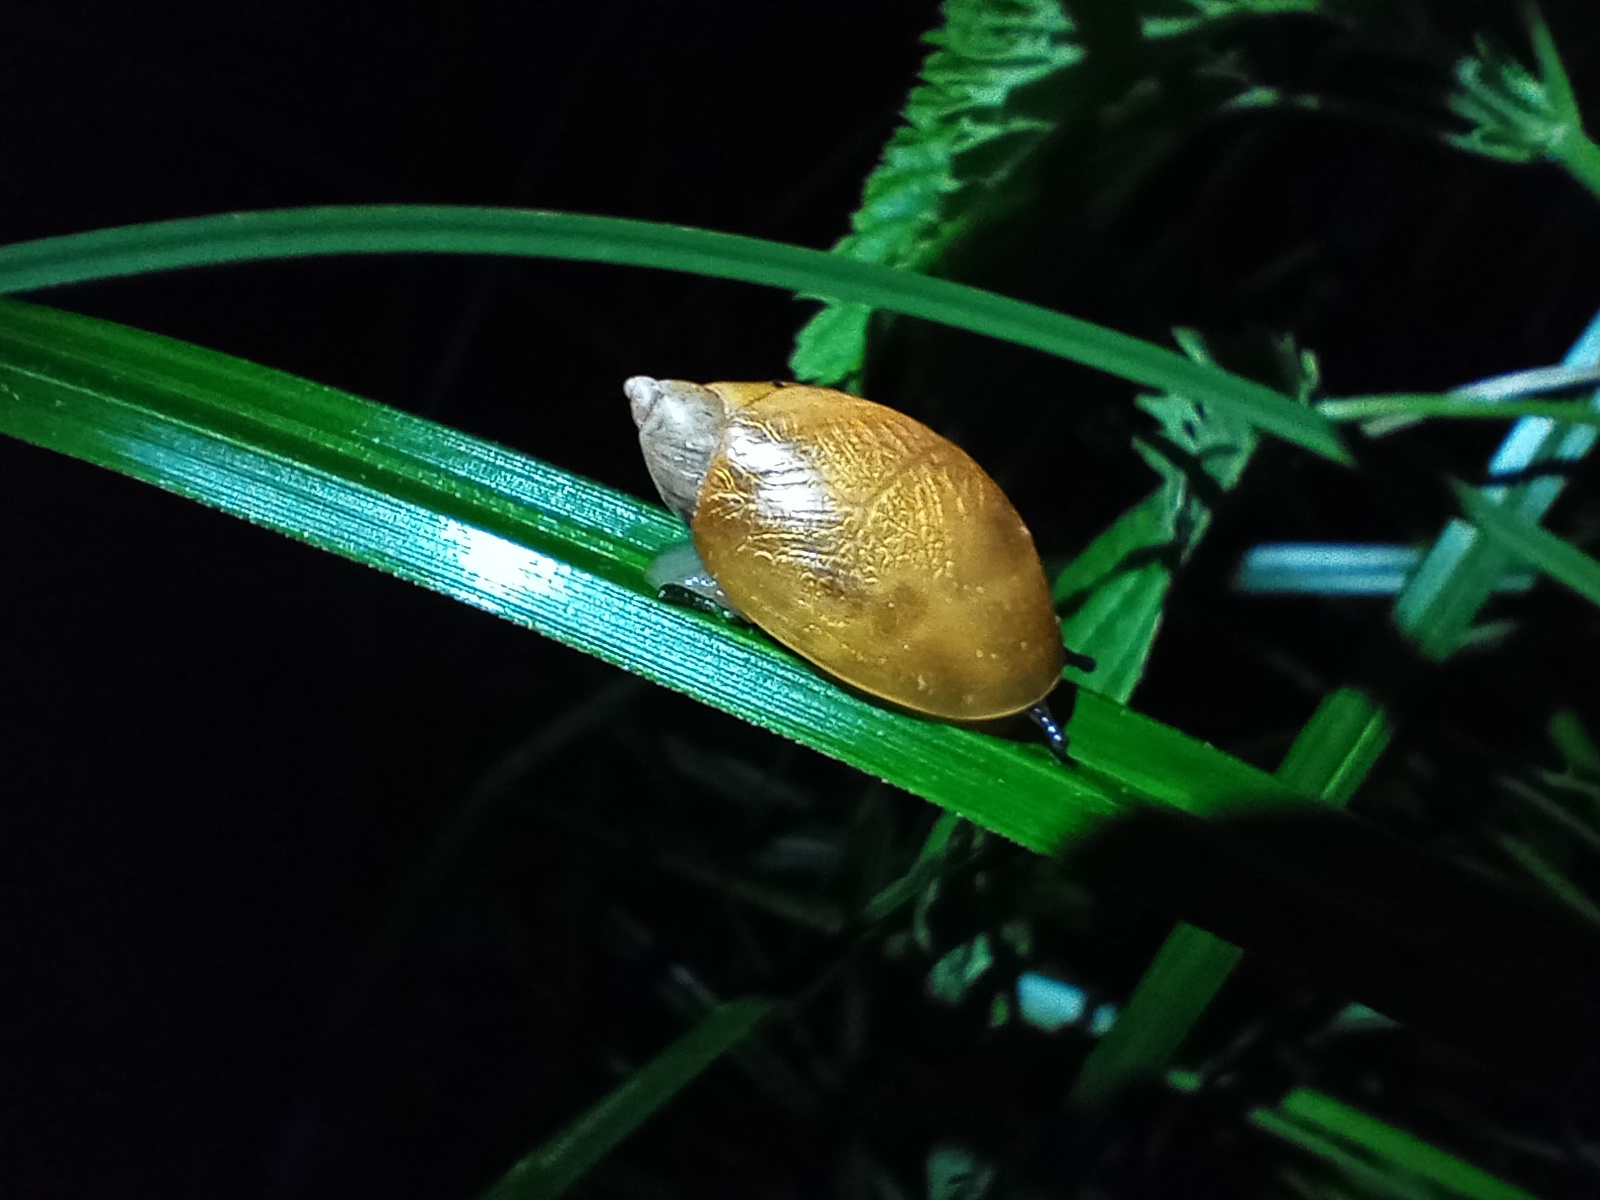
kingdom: Animalia
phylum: Mollusca
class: Gastropoda
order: Stylommatophora
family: Succineidae
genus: Succinea
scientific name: Succinea putris
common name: European ambersnail
